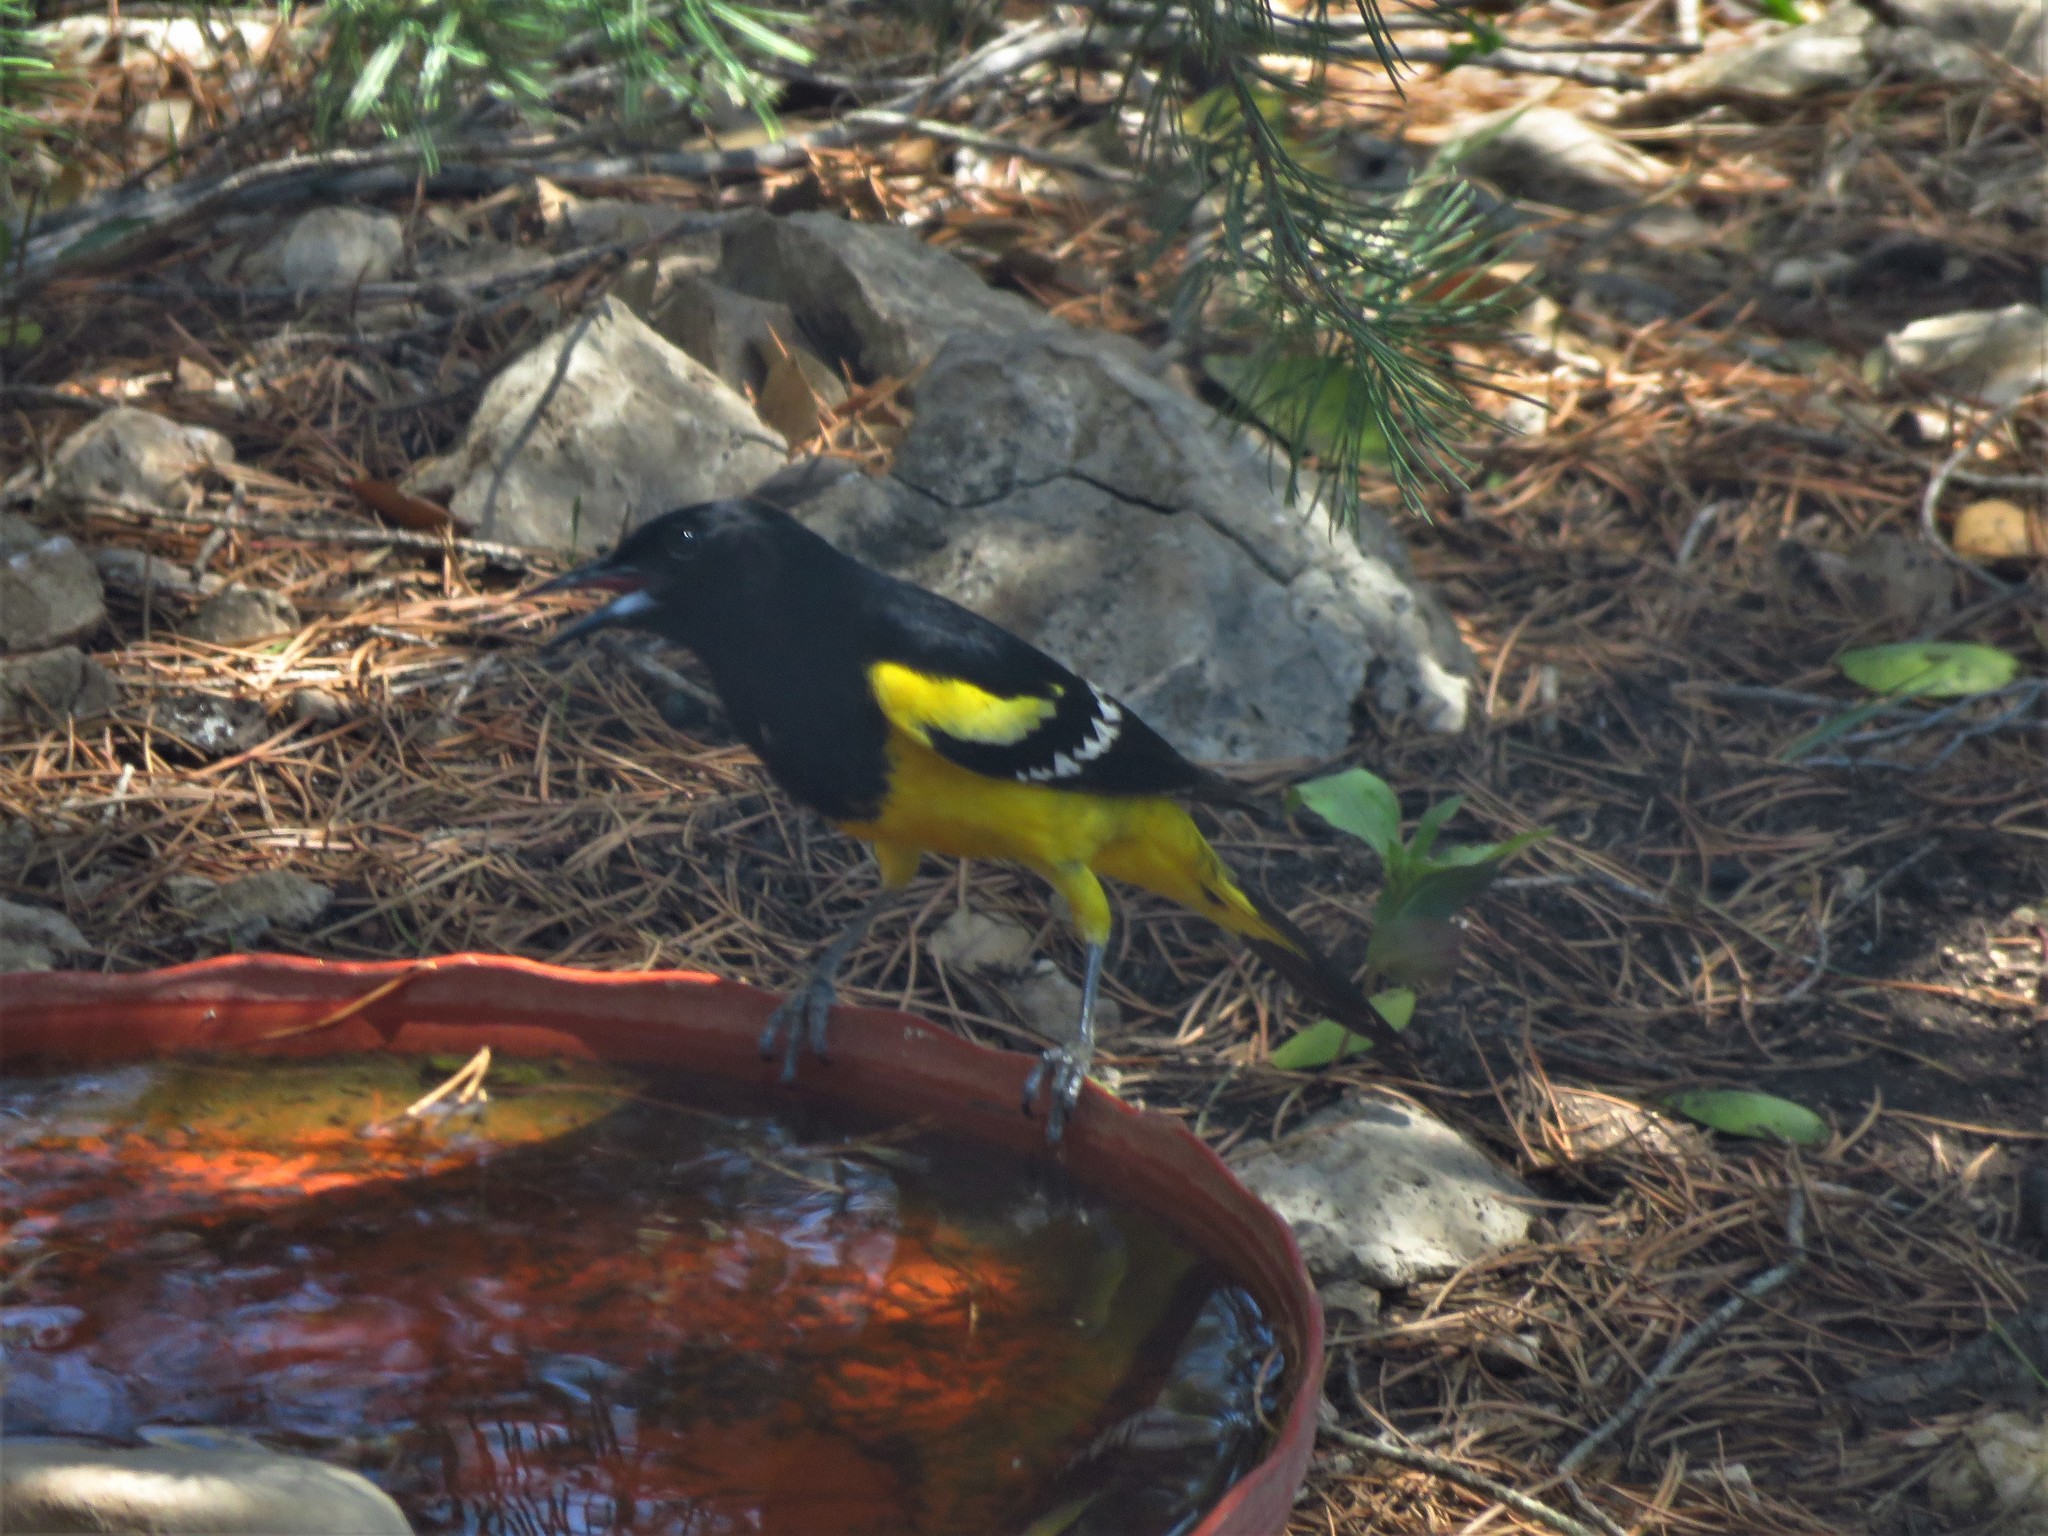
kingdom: Animalia
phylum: Chordata
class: Aves
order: Passeriformes
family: Icteridae
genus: Icterus
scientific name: Icterus parisorum
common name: Scott's oriole
